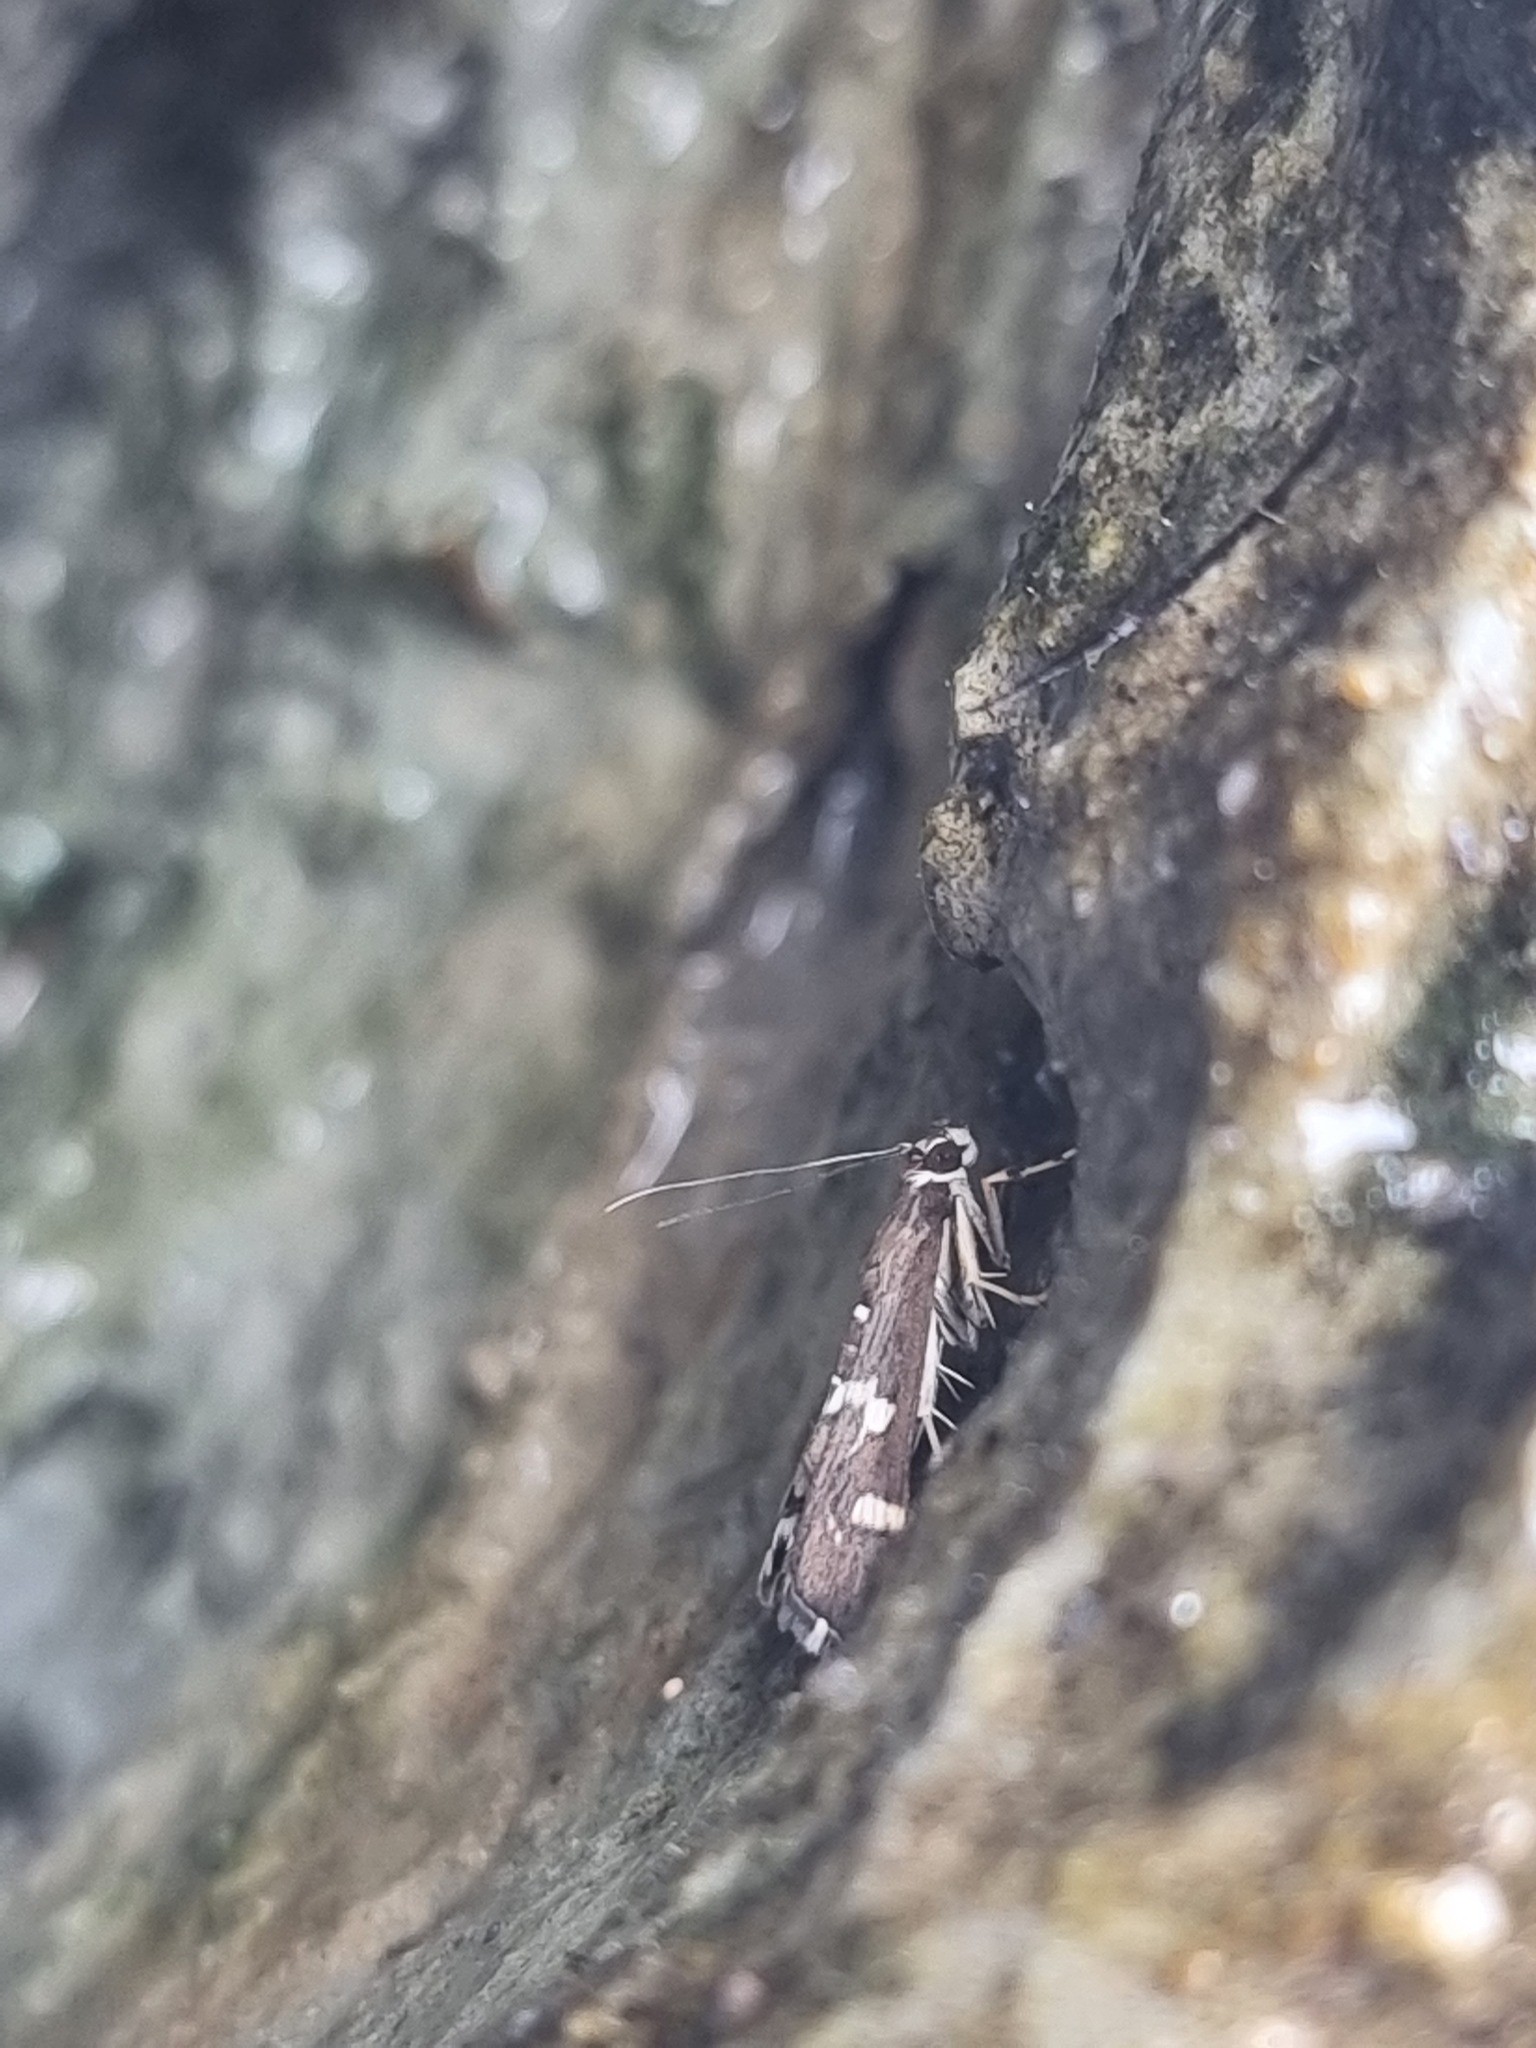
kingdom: Animalia
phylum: Arthropoda
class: Insecta
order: Lepidoptera
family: Crambidae
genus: Spoladea
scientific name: Spoladea recurvalis
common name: Beet webworm moth
